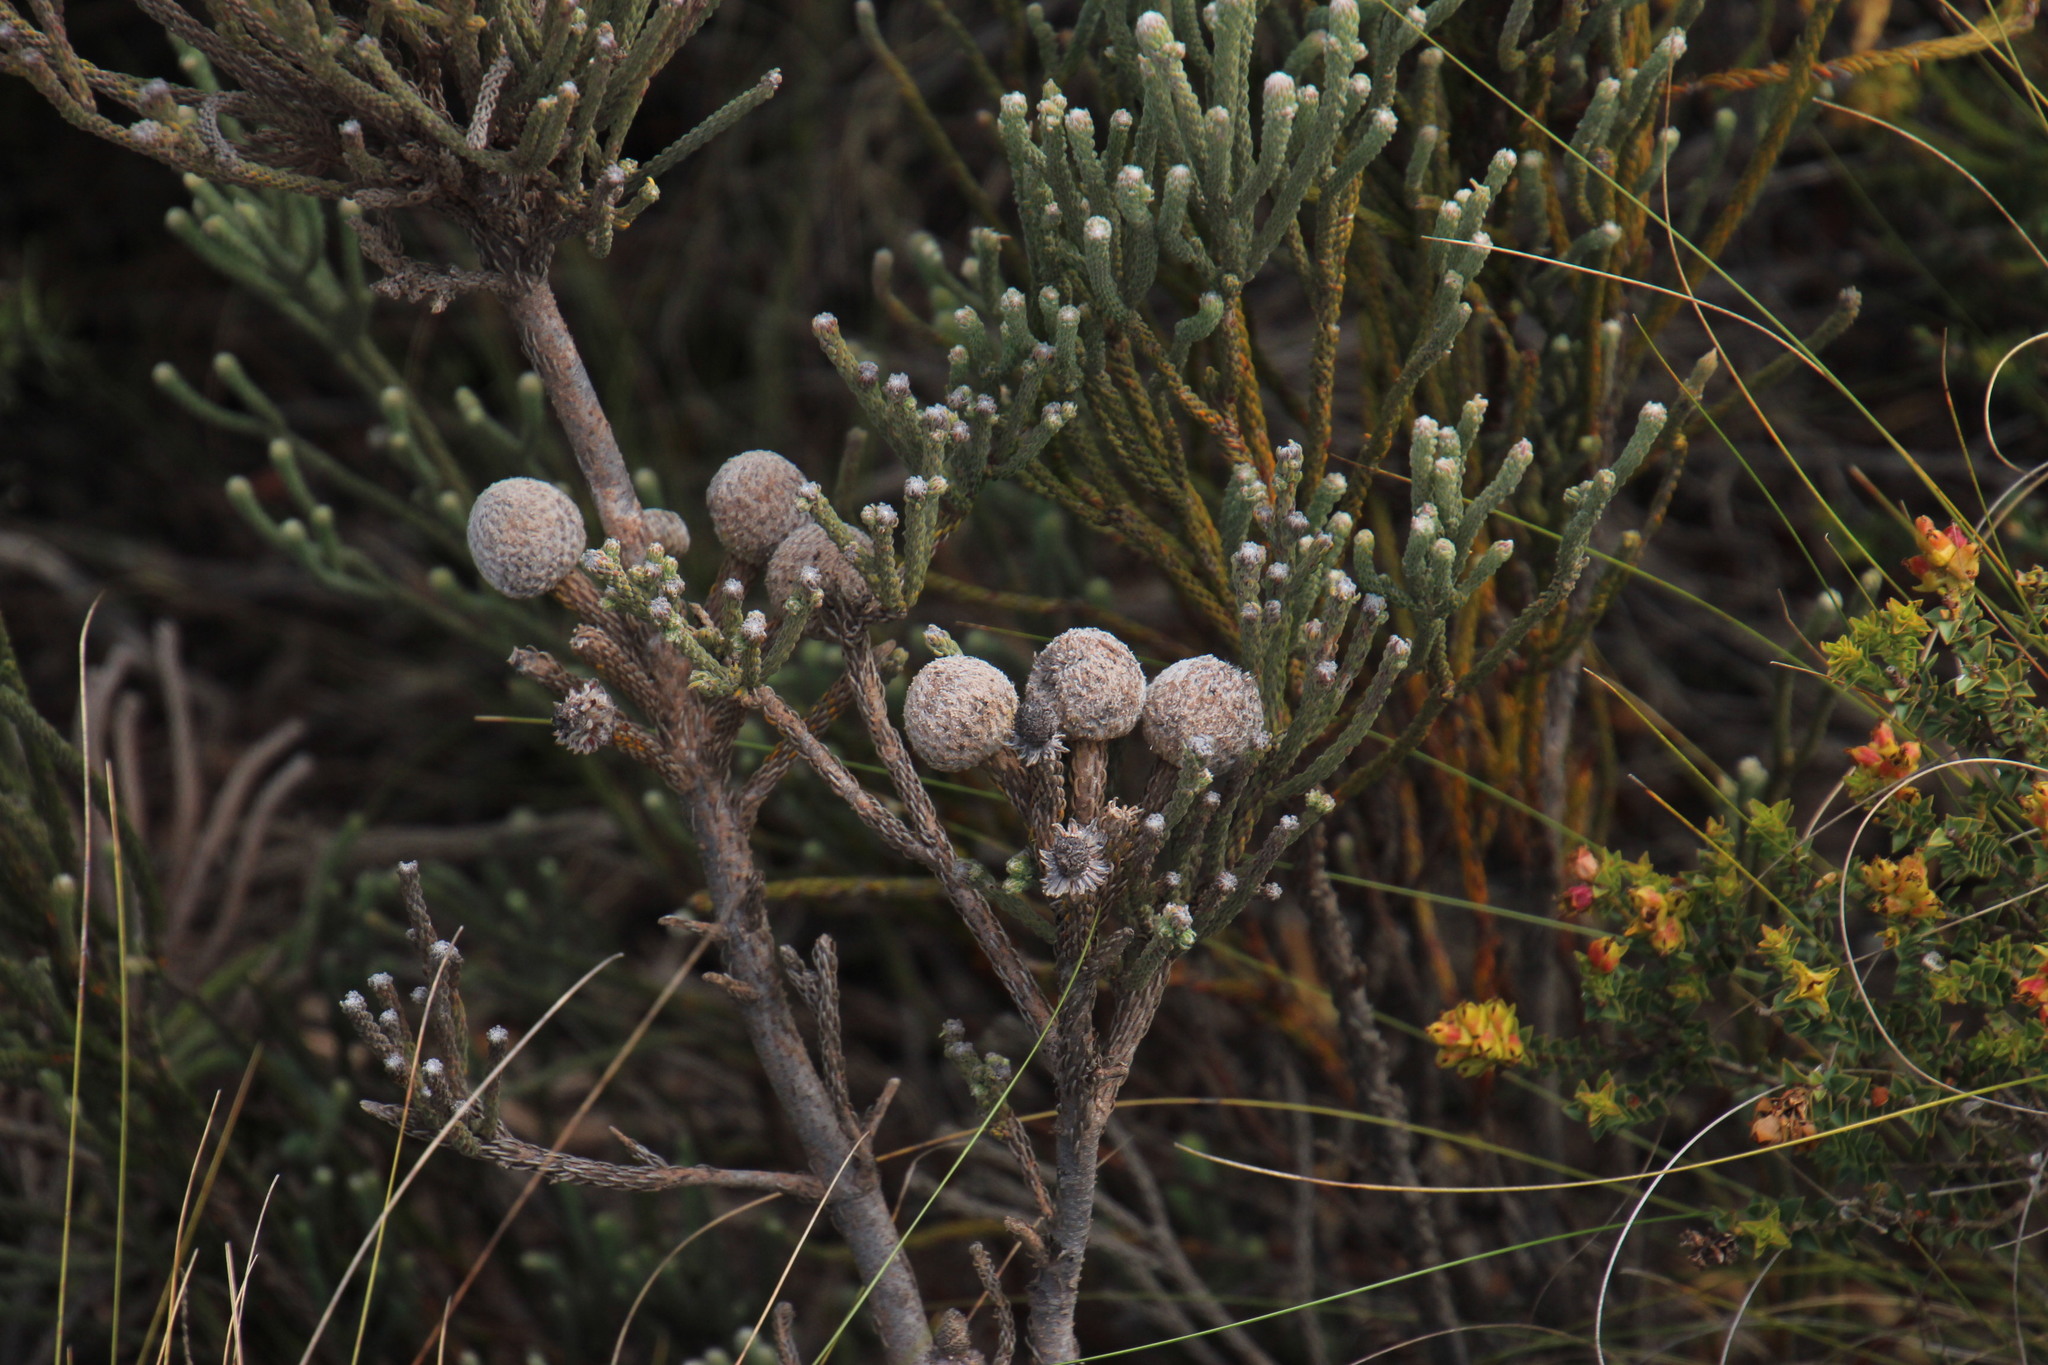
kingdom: Plantae
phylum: Tracheophyta
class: Magnoliopsida
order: Bruniales
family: Bruniaceae
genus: Brunia
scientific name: Brunia noduliflora
